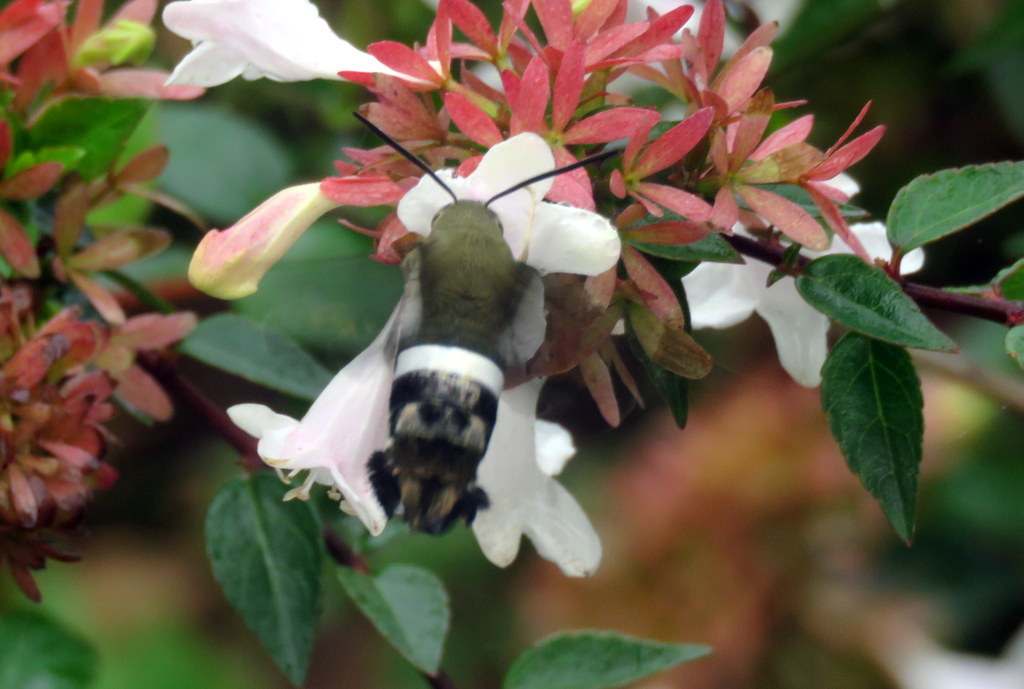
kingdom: Animalia
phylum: Arthropoda
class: Insecta
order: Lepidoptera
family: Sphingidae
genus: Aellopos
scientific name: Aellopos
